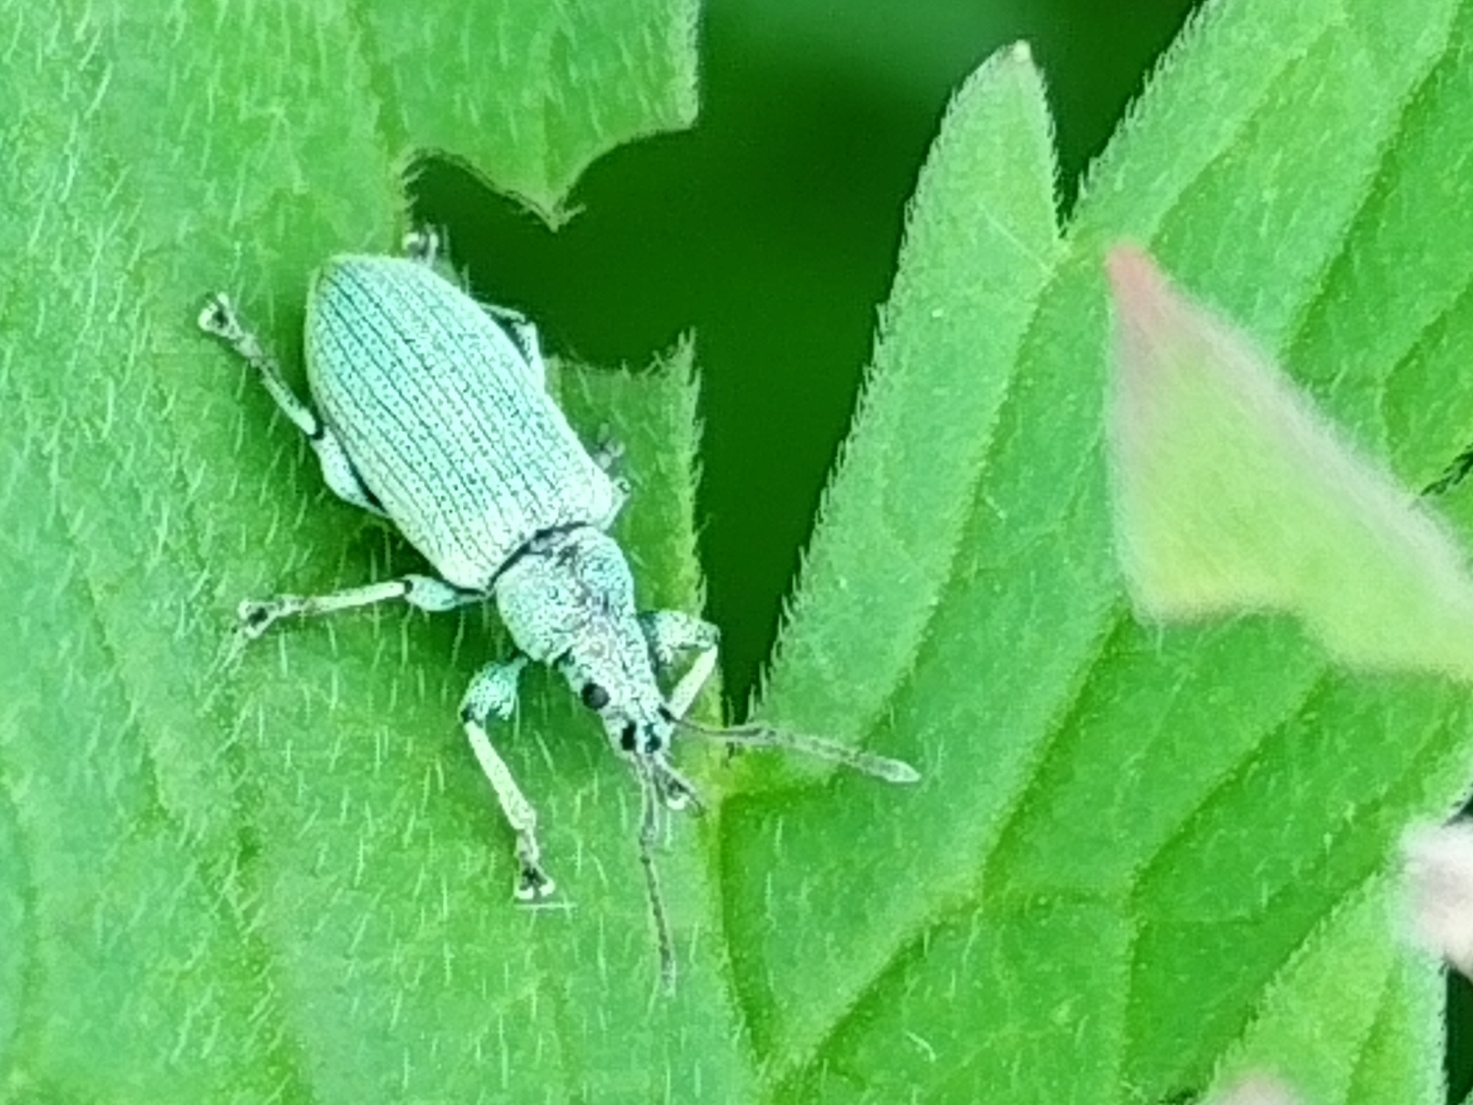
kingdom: Animalia
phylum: Arthropoda
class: Insecta
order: Coleoptera
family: Curculionidae
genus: Phyllobius
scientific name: Phyllobius maculicornis
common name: Green leaf weevil
